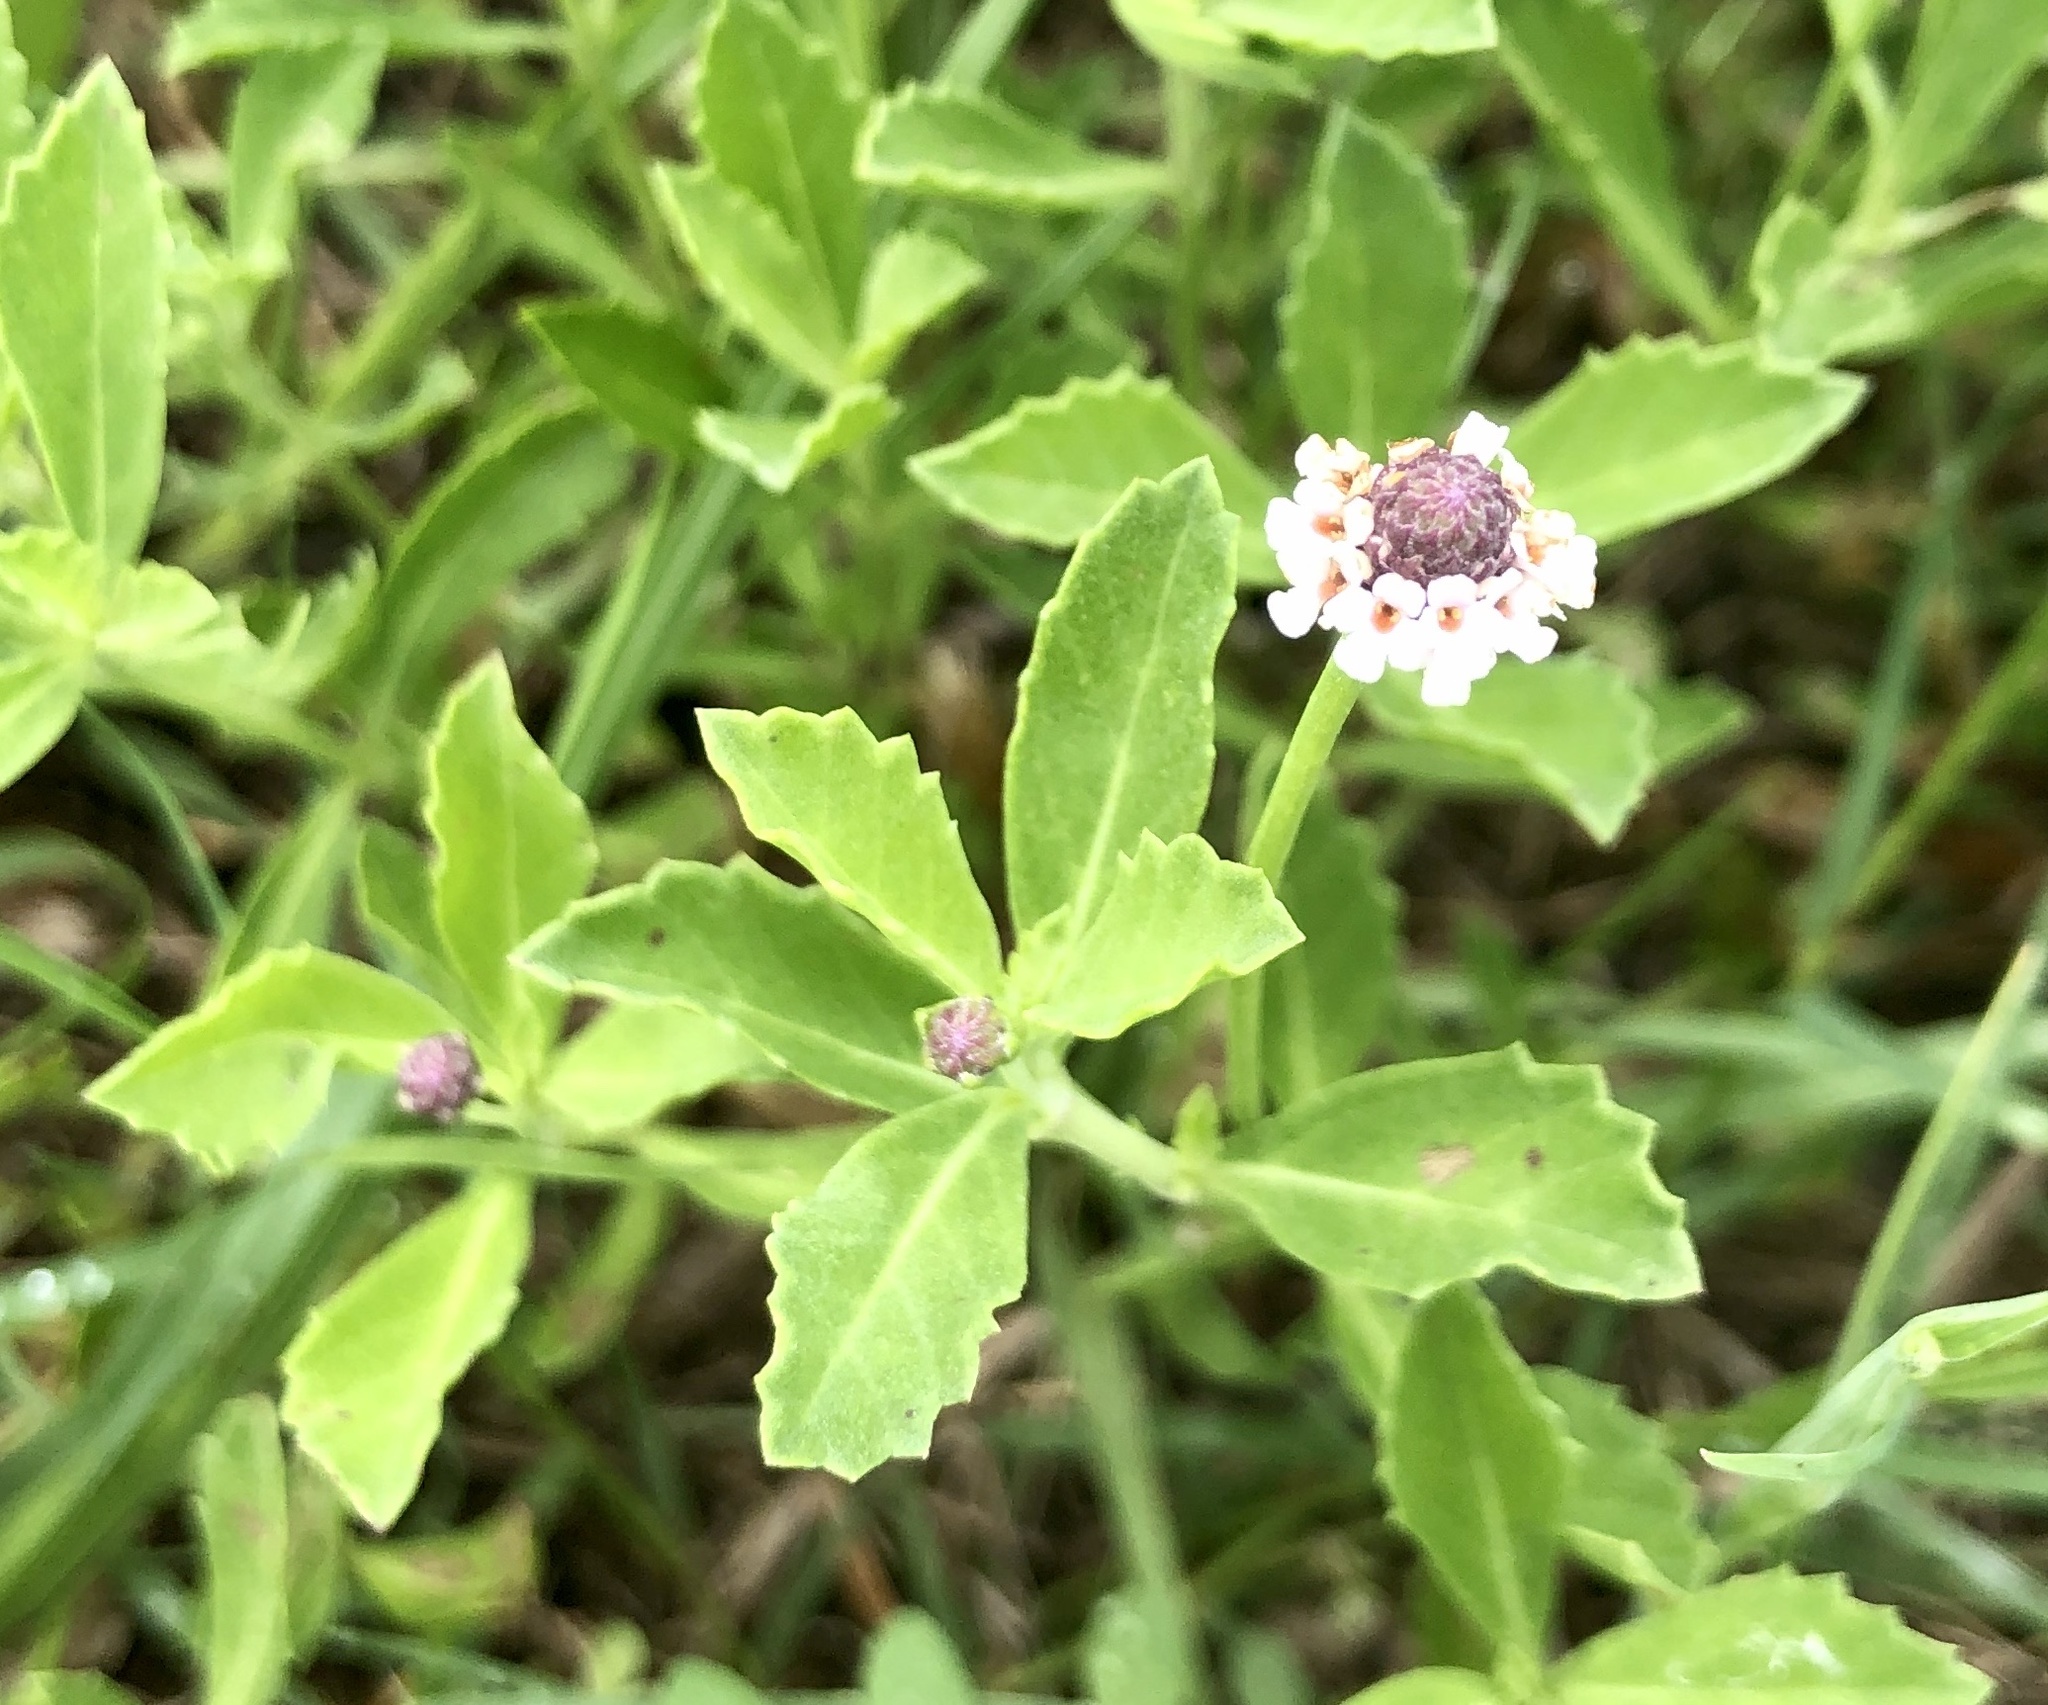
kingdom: Plantae
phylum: Tracheophyta
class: Magnoliopsida
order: Lamiales
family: Verbenaceae
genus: Phyla
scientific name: Phyla nodiflora
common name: Frogfruit
